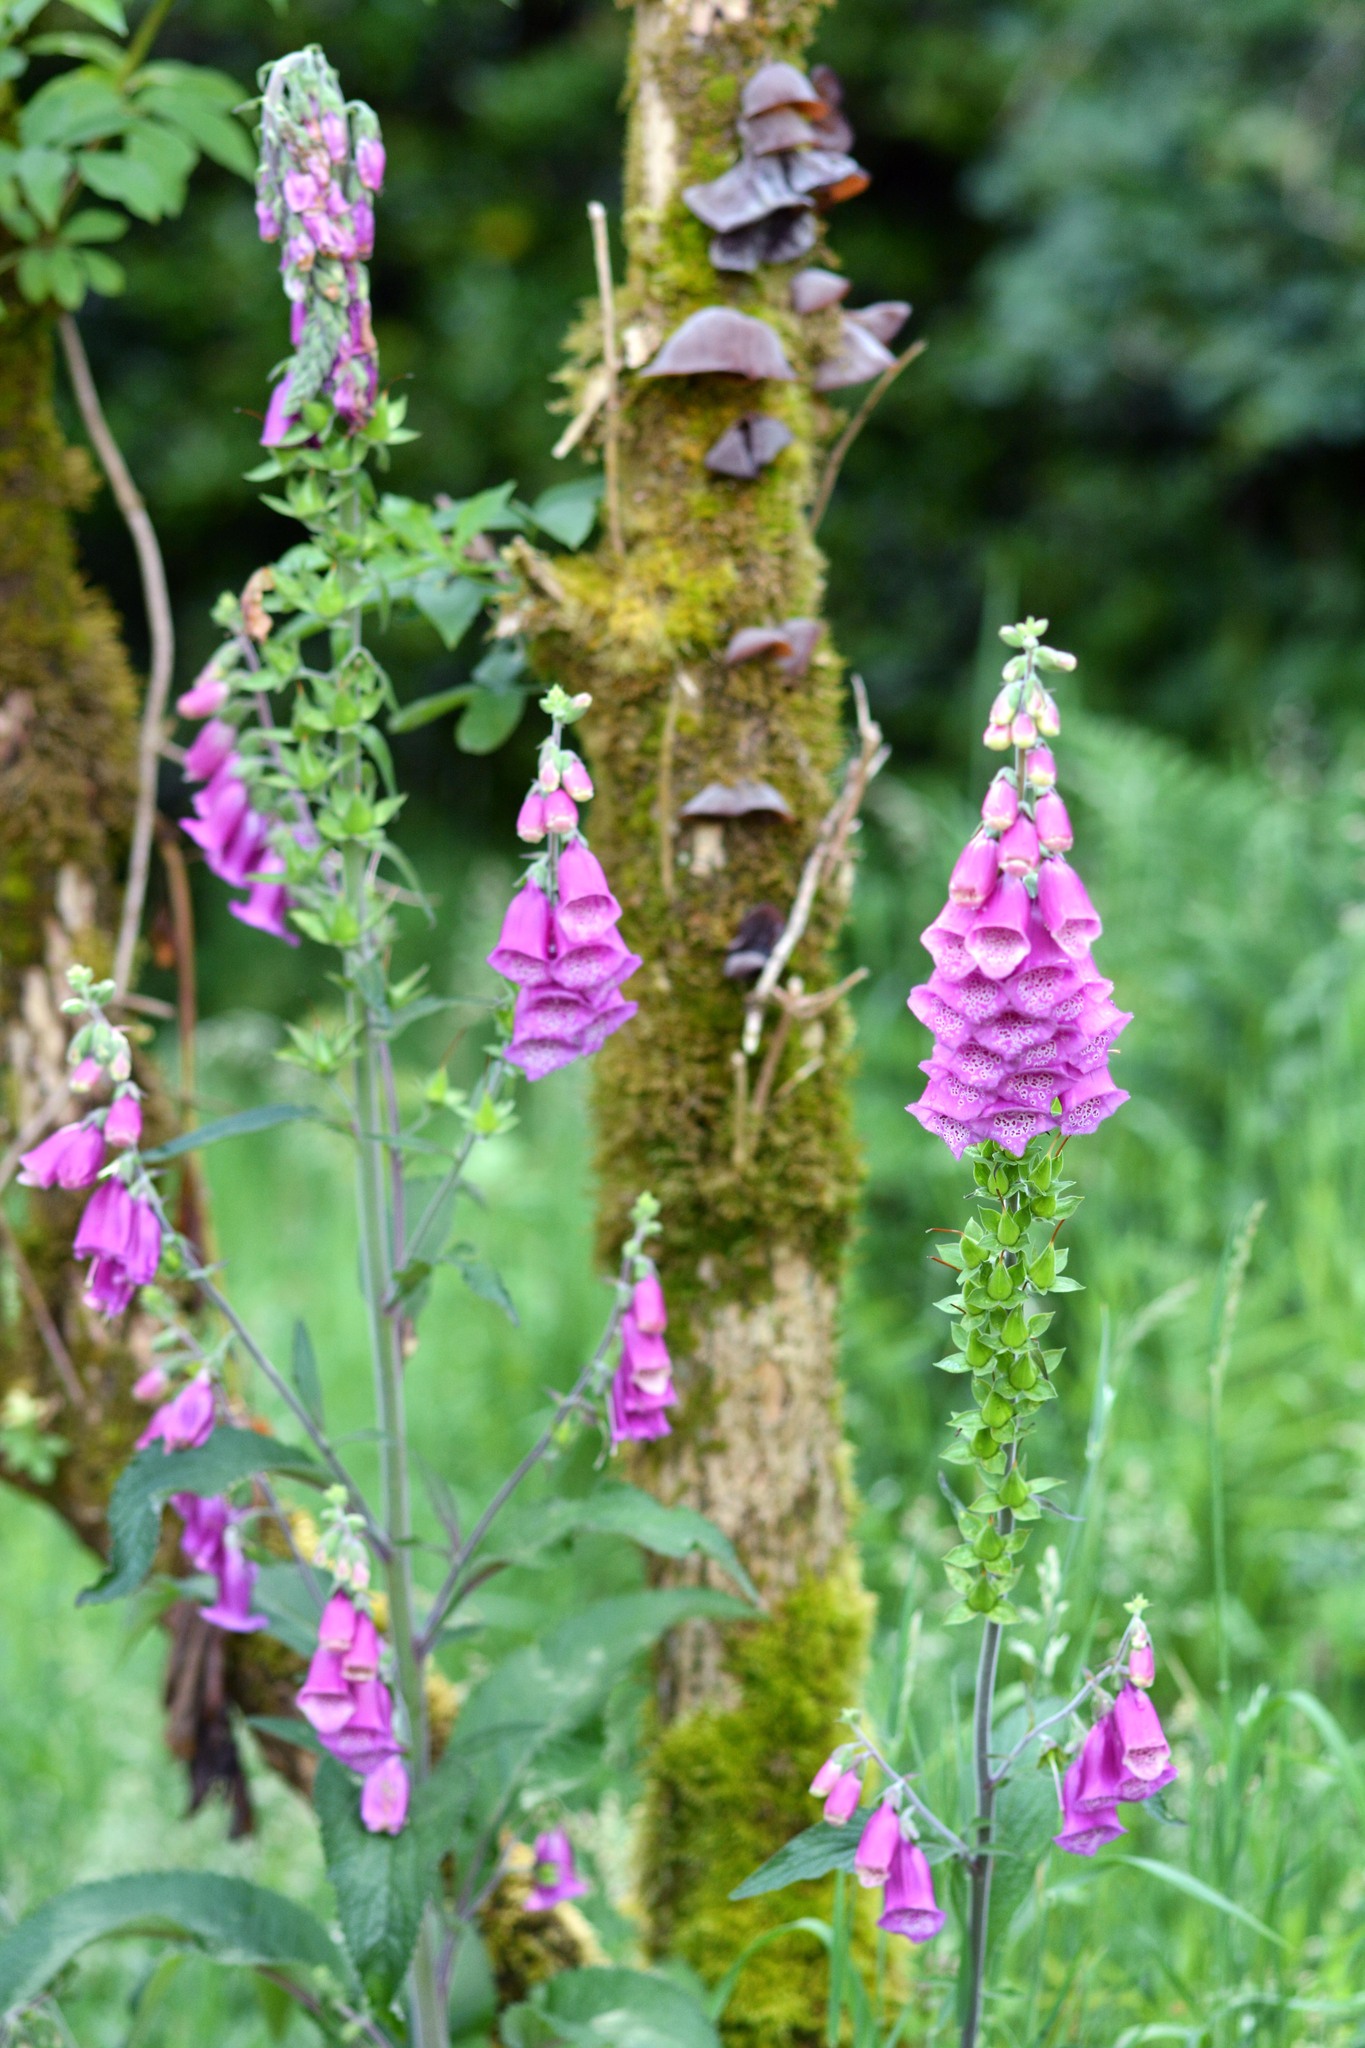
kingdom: Plantae
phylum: Tracheophyta
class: Magnoliopsida
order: Lamiales
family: Plantaginaceae
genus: Digitalis
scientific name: Digitalis purpurea
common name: Foxglove
